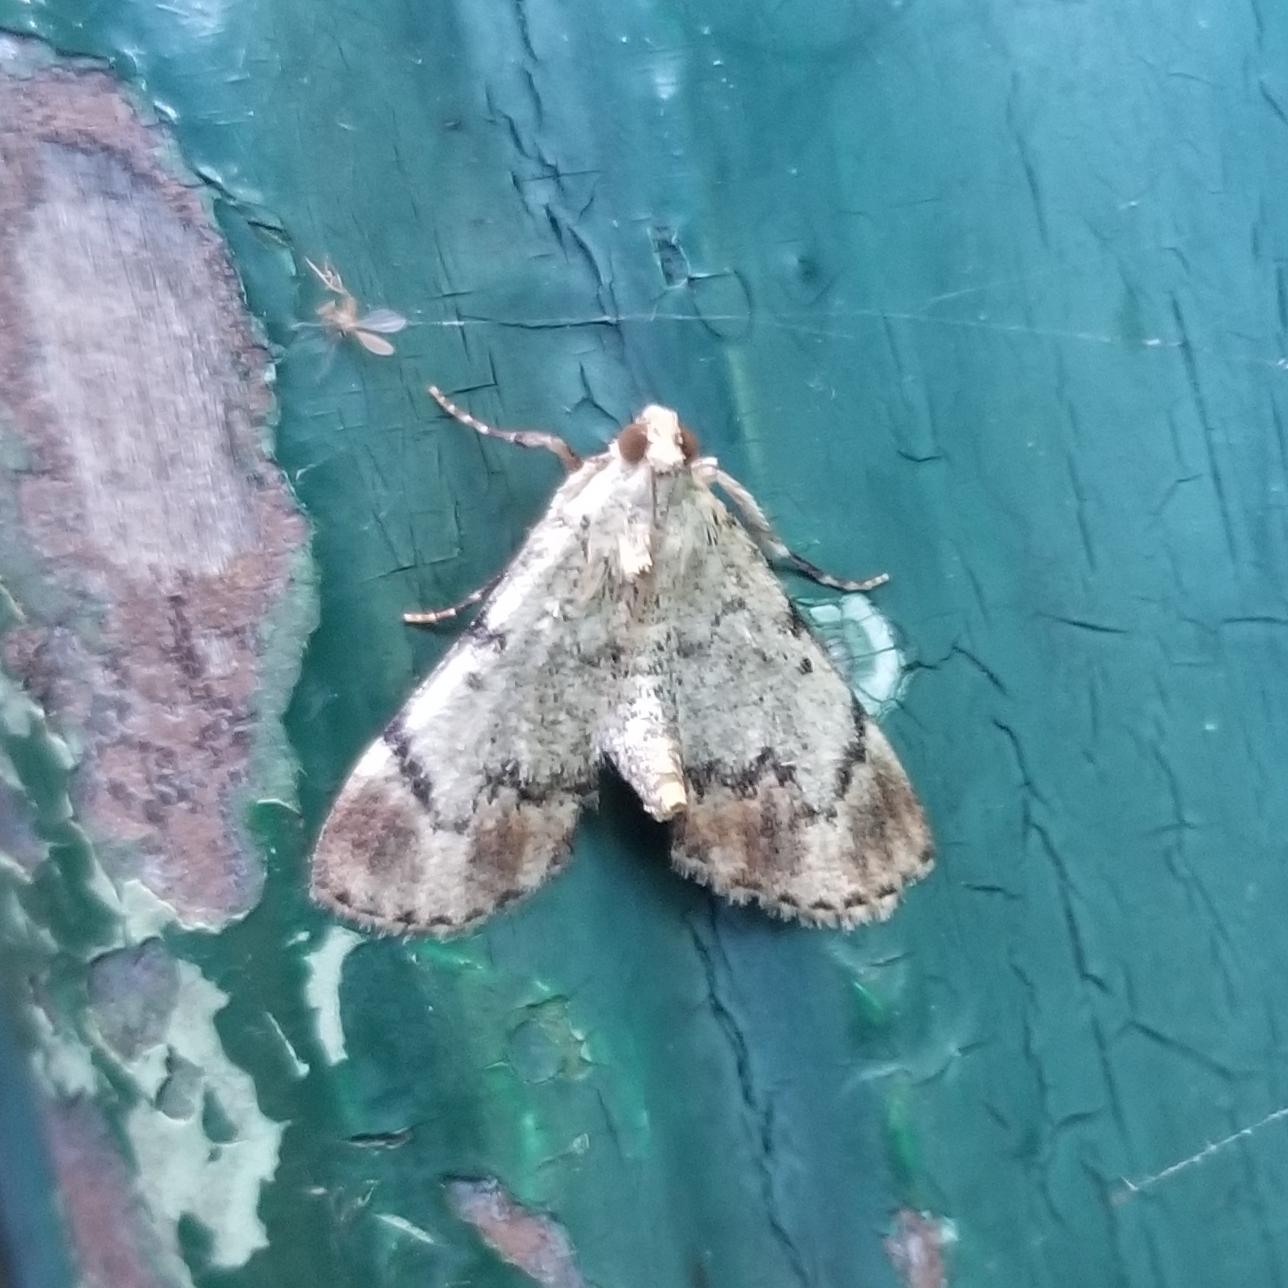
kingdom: Animalia
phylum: Arthropoda
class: Insecta
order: Lepidoptera
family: Pyralidae
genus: Epipaschia
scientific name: Epipaschia superatalis
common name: Dimorphic macalla moth
